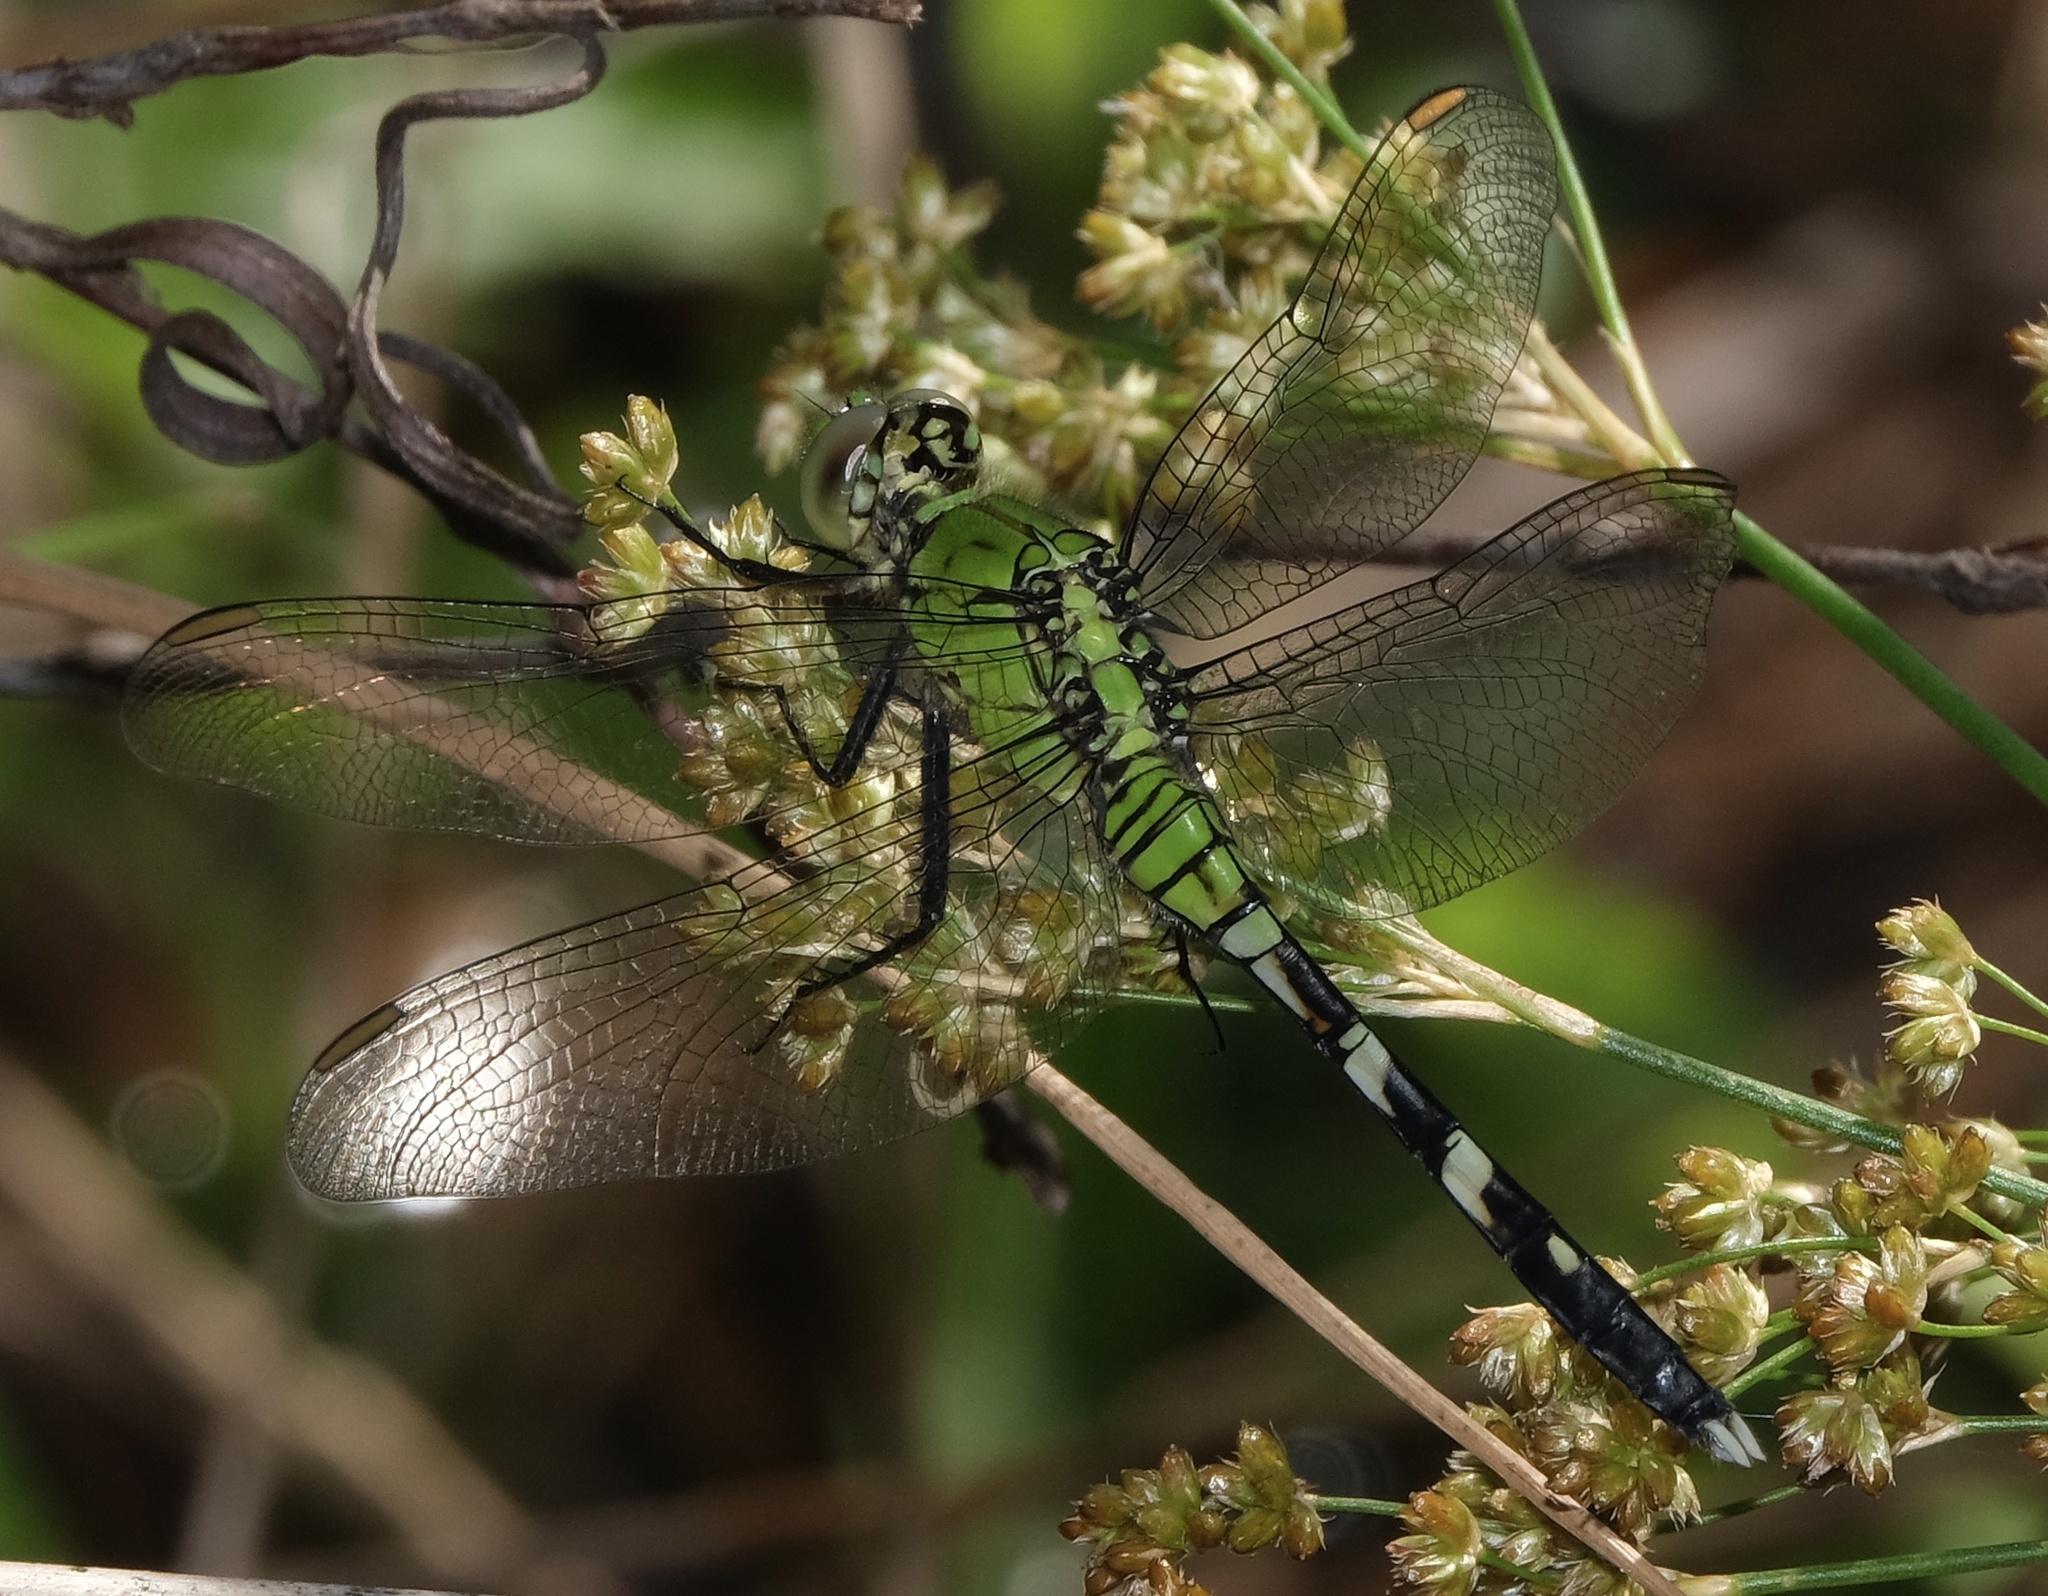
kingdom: Animalia
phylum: Arthropoda
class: Insecta
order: Odonata
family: Libellulidae
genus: Erythemis
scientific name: Erythemis simplicicollis
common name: Eastern pondhawk
